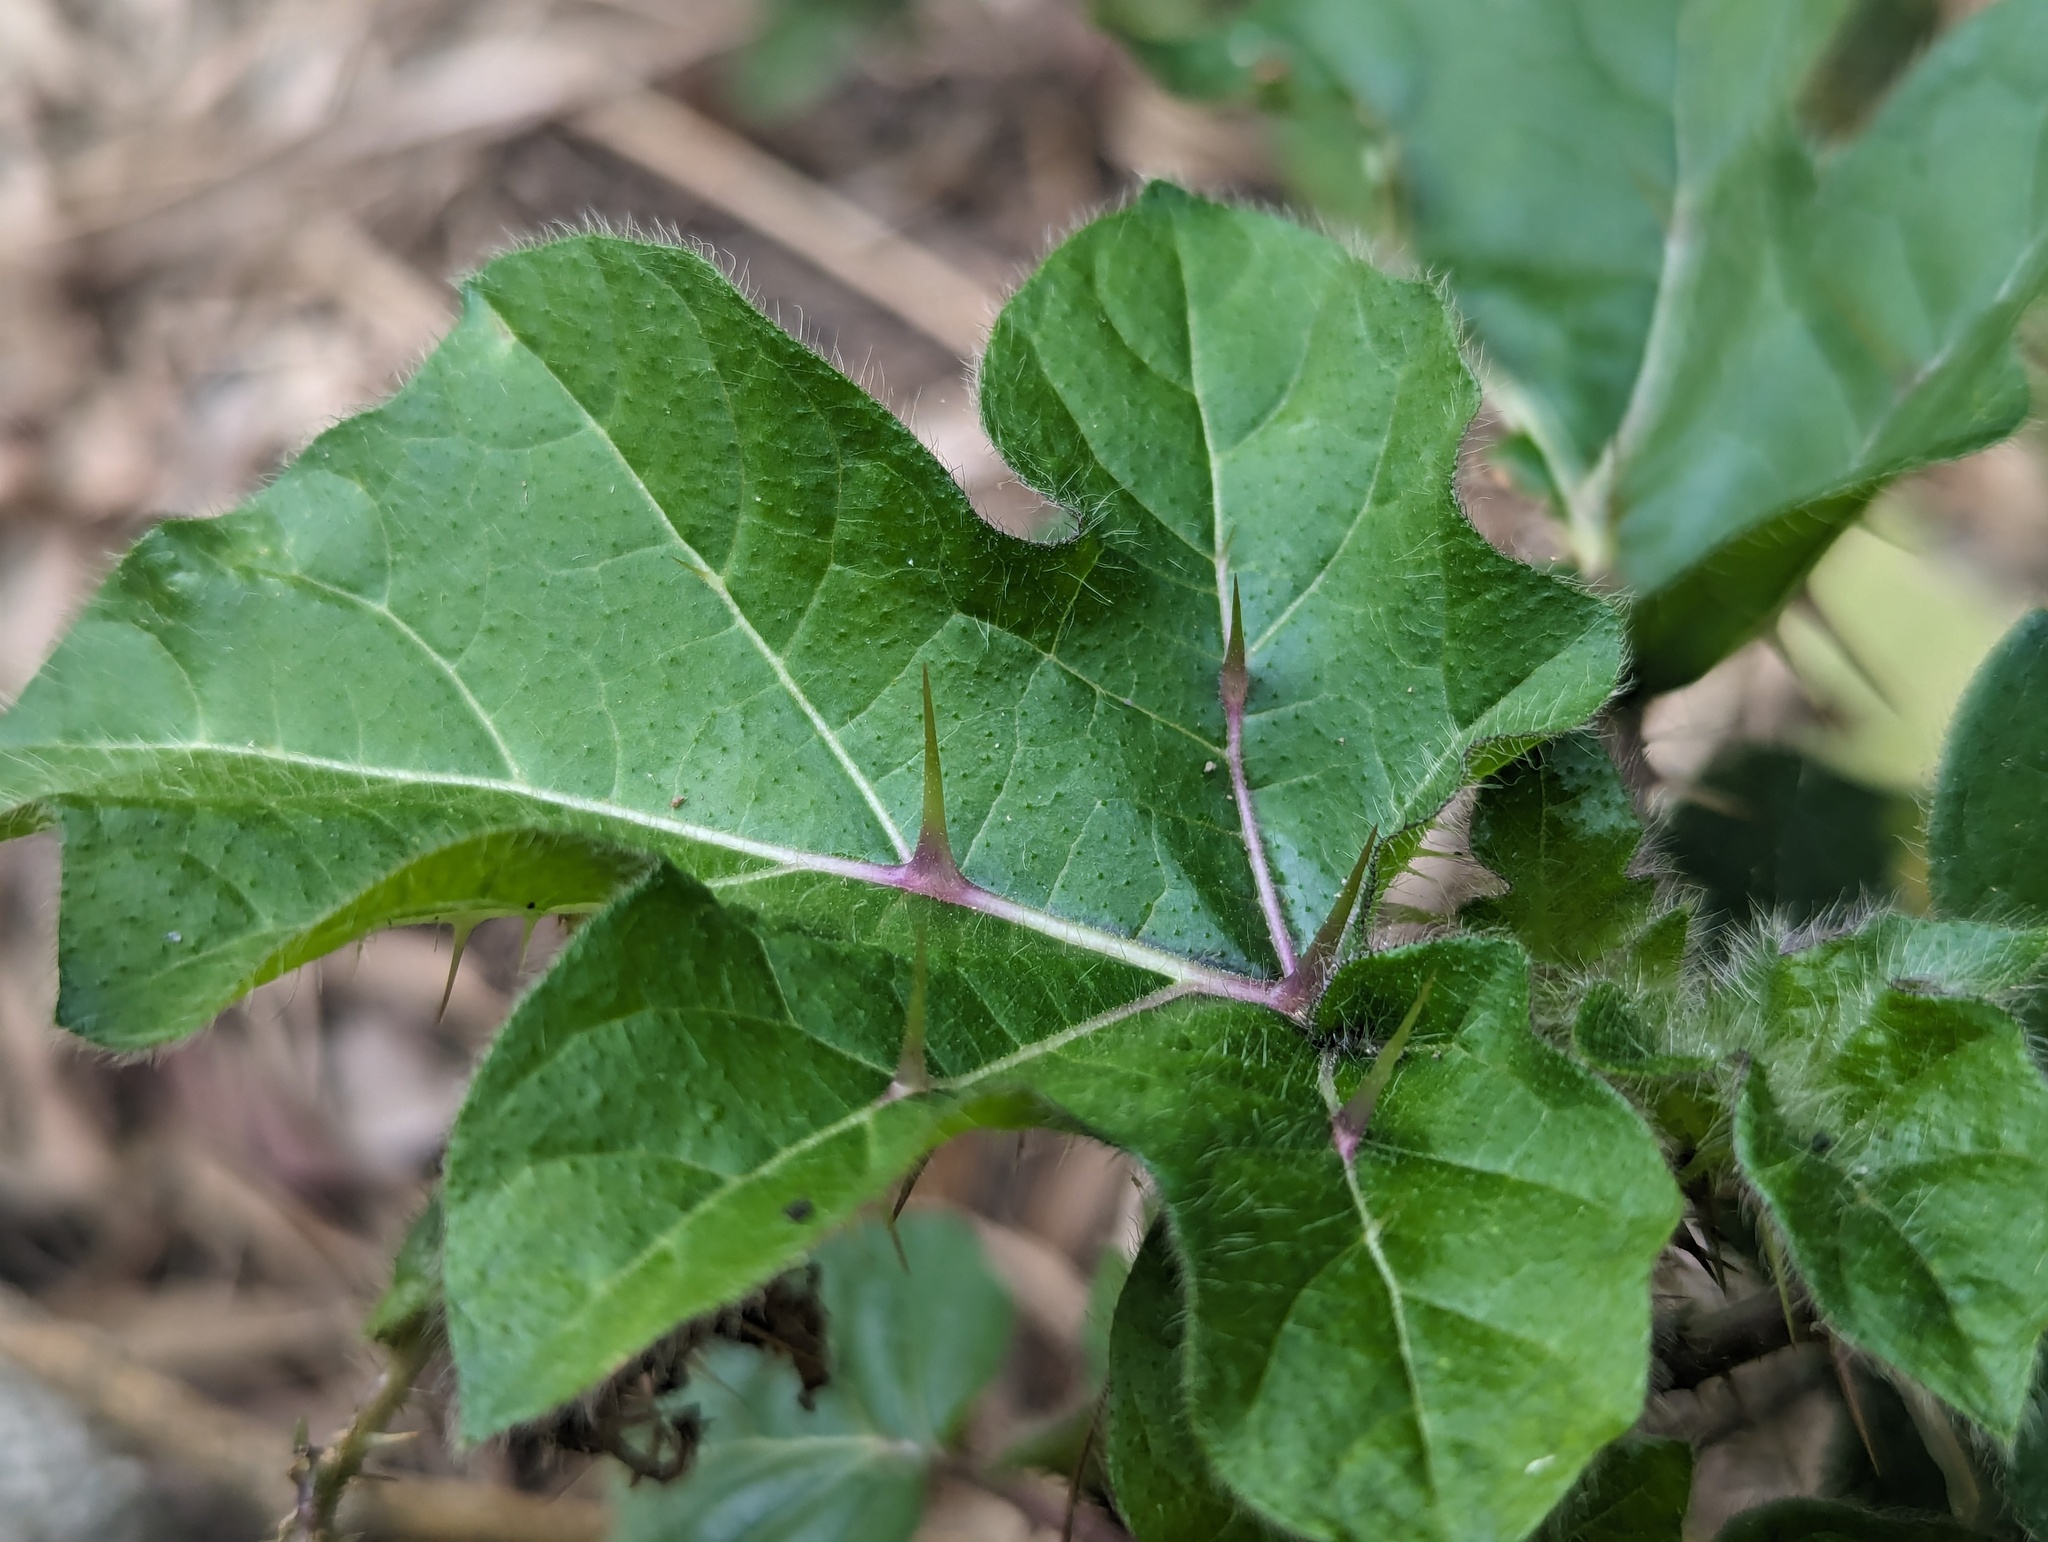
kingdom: Plantae
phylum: Tracheophyta
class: Magnoliopsida
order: Solanales
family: Solanaceae
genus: Solanum
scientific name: Solanum capsicoides
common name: Cockroach berry
